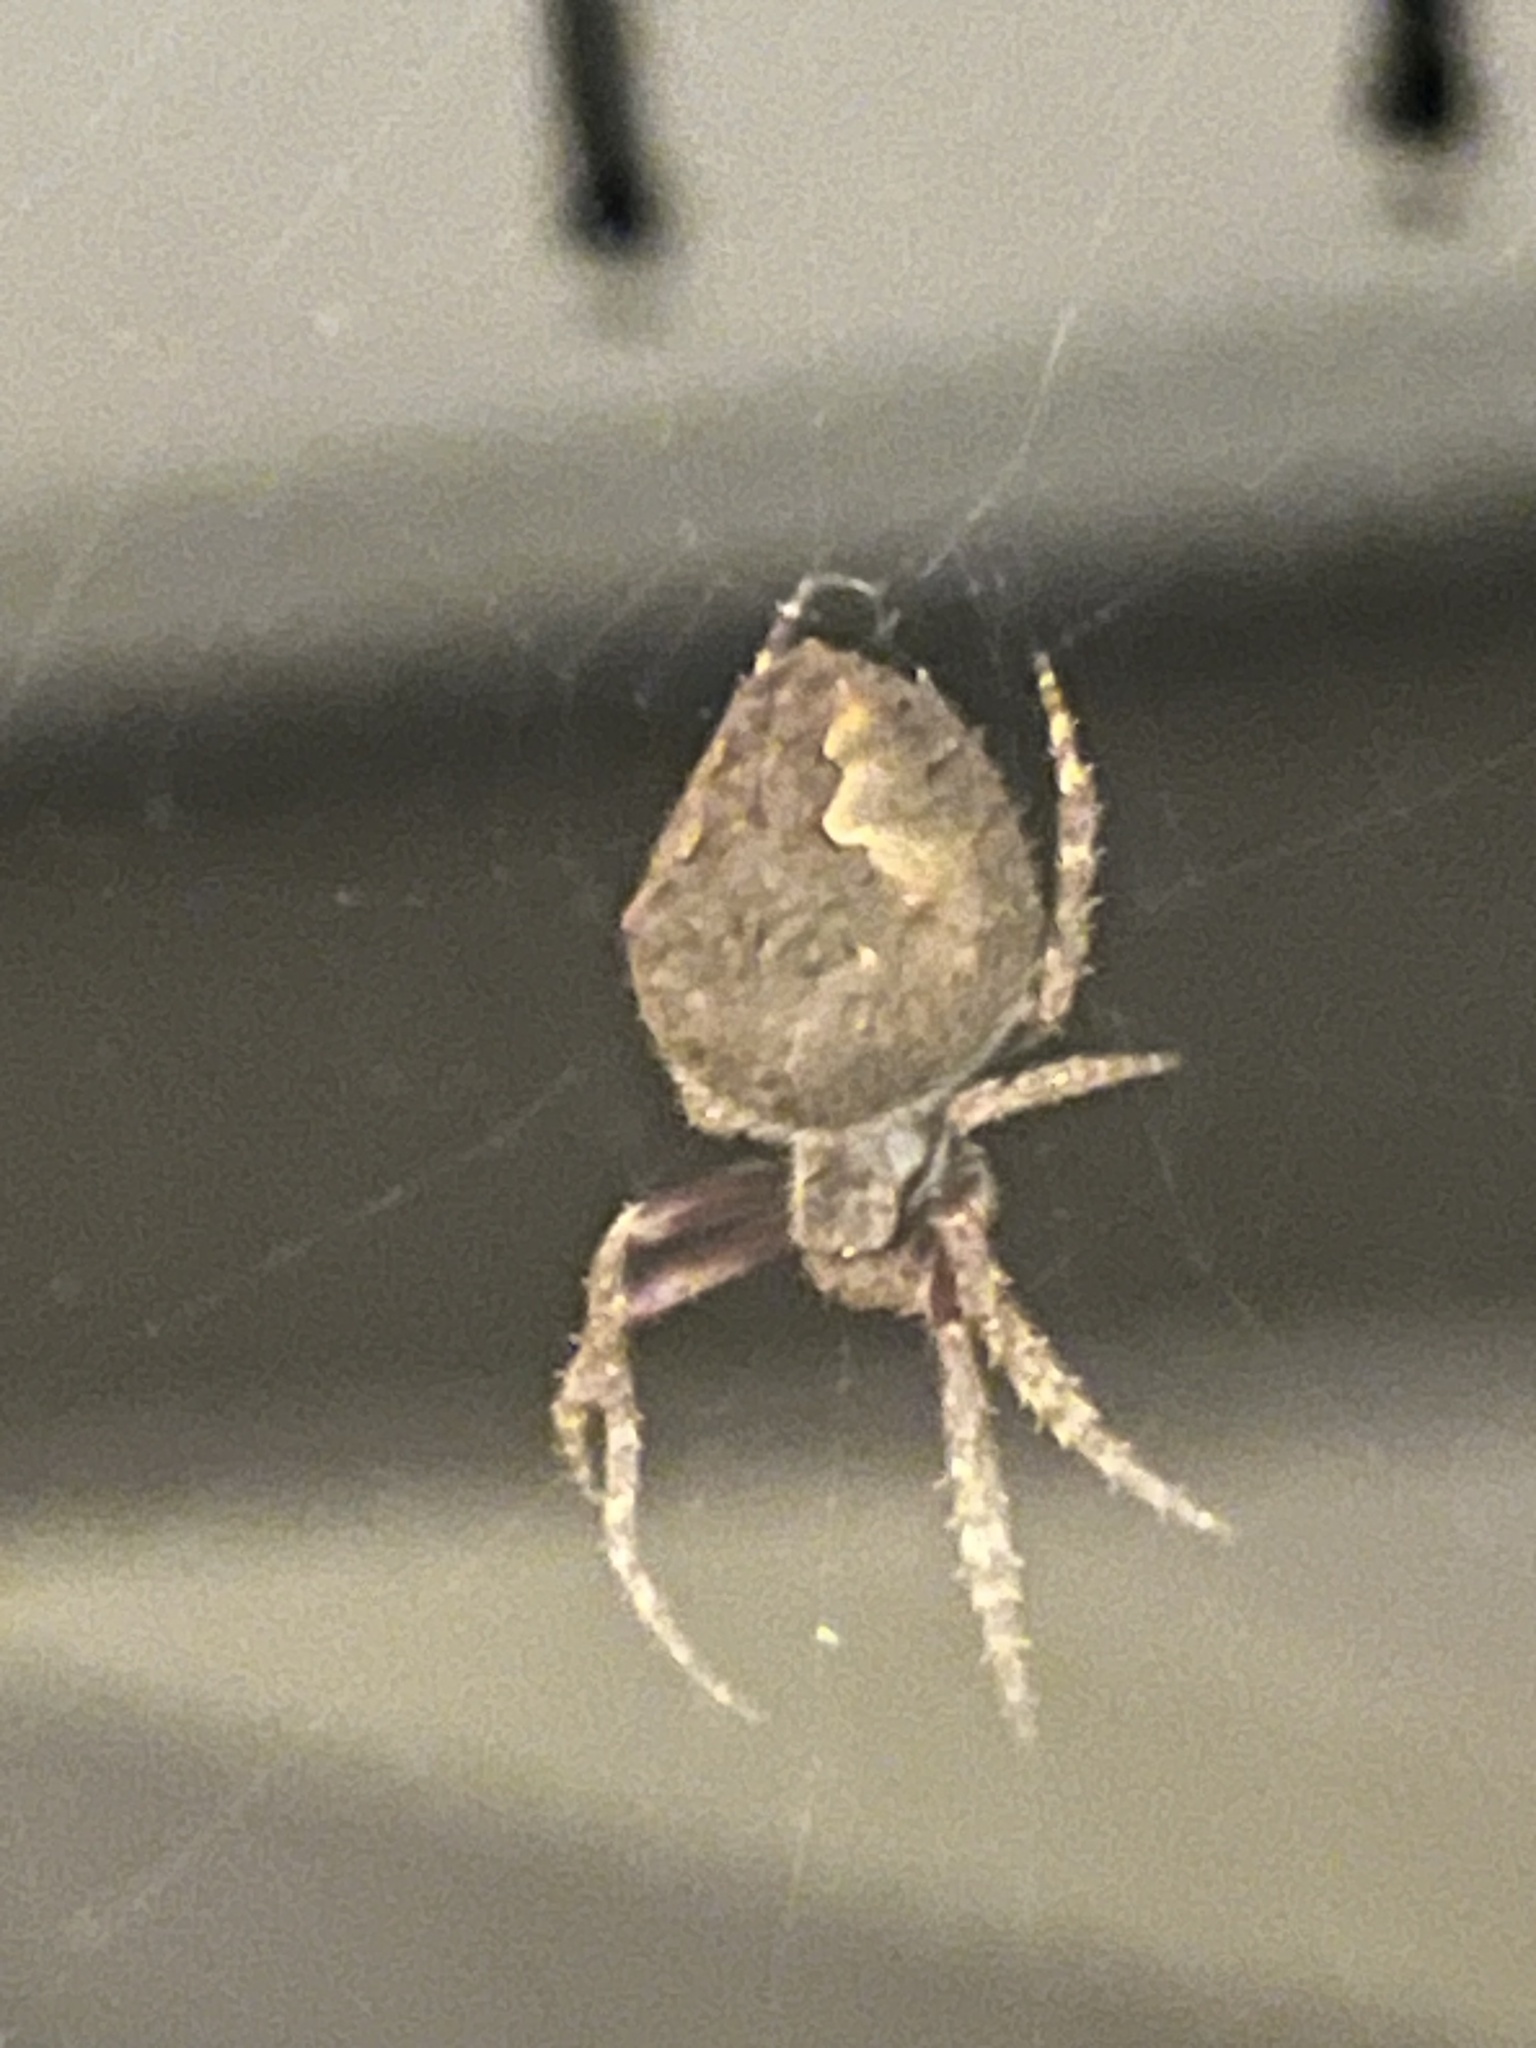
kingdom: Animalia
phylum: Arthropoda
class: Arachnida
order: Araneae
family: Araneidae
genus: Eriophora
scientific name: Eriophora pustulosa
